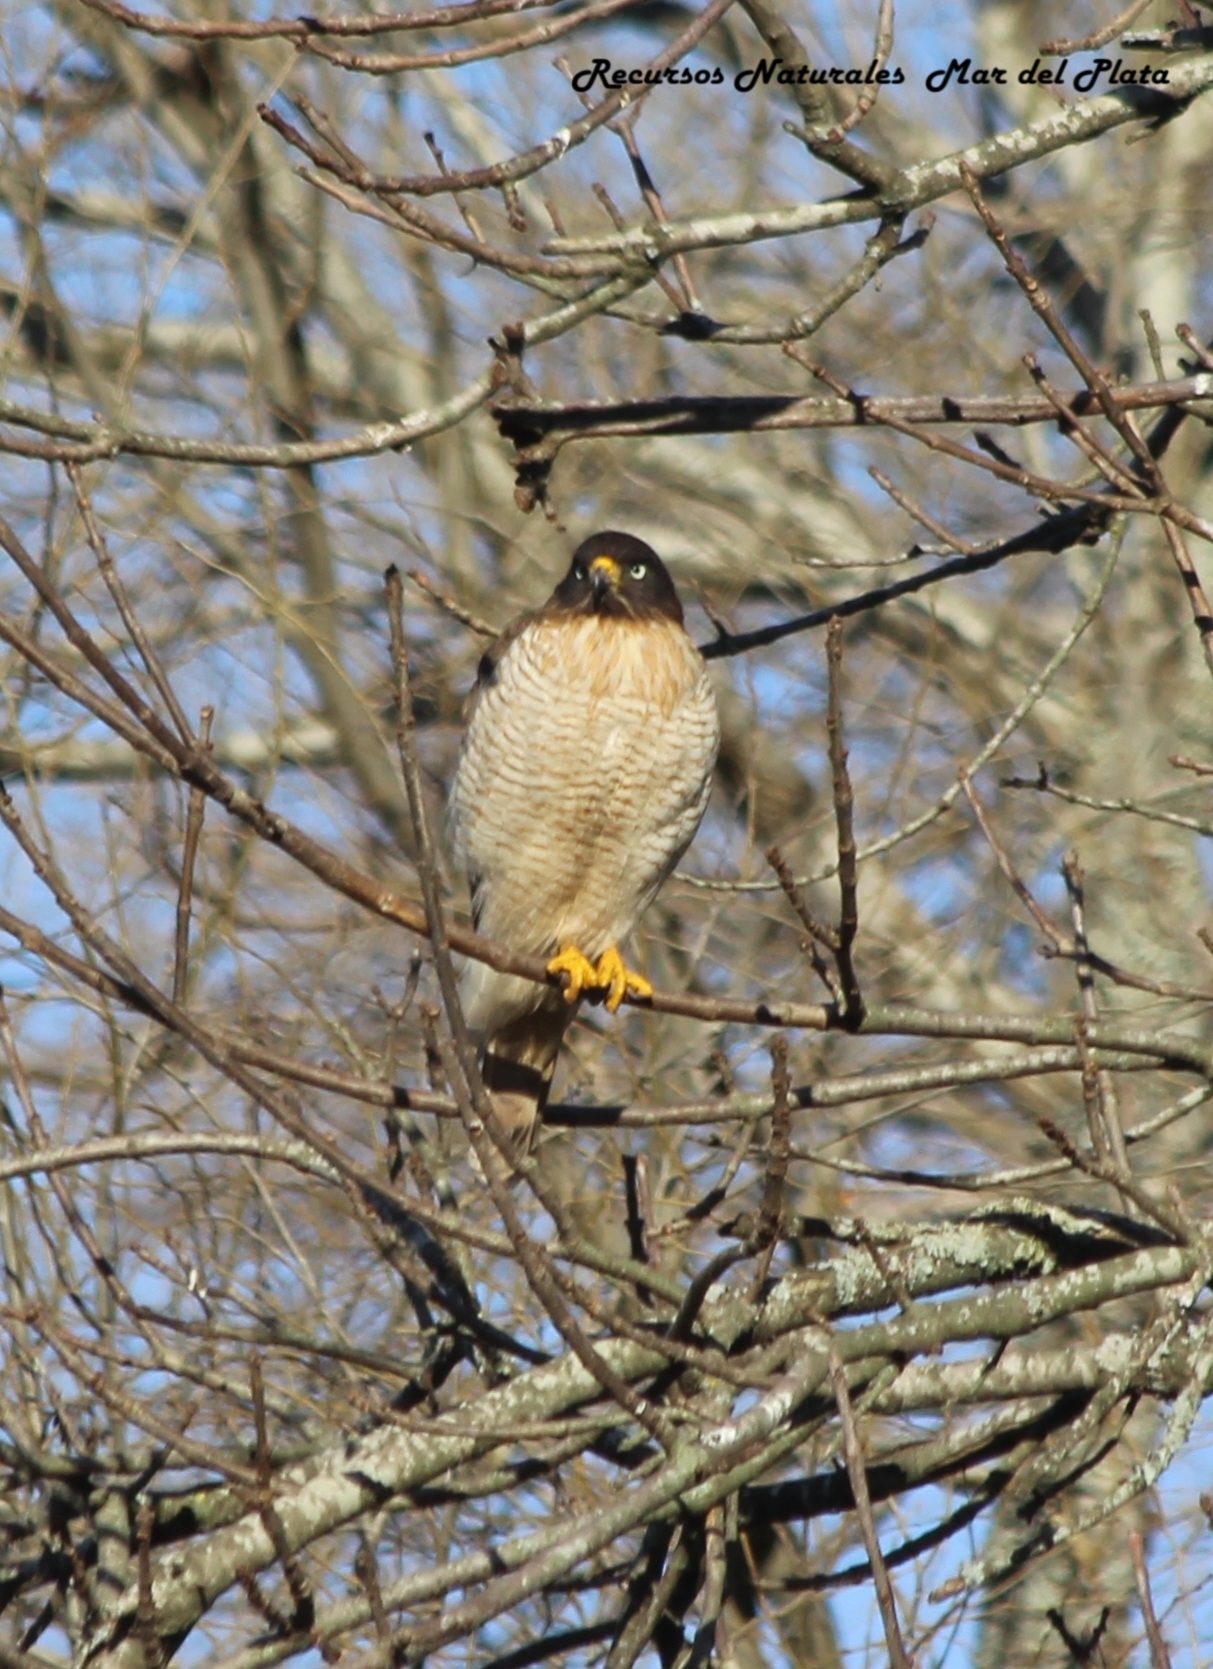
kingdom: Animalia
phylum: Chordata
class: Aves
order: Accipitriformes
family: Accipitridae
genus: Rupornis
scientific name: Rupornis magnirostris
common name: Roadside hawk
